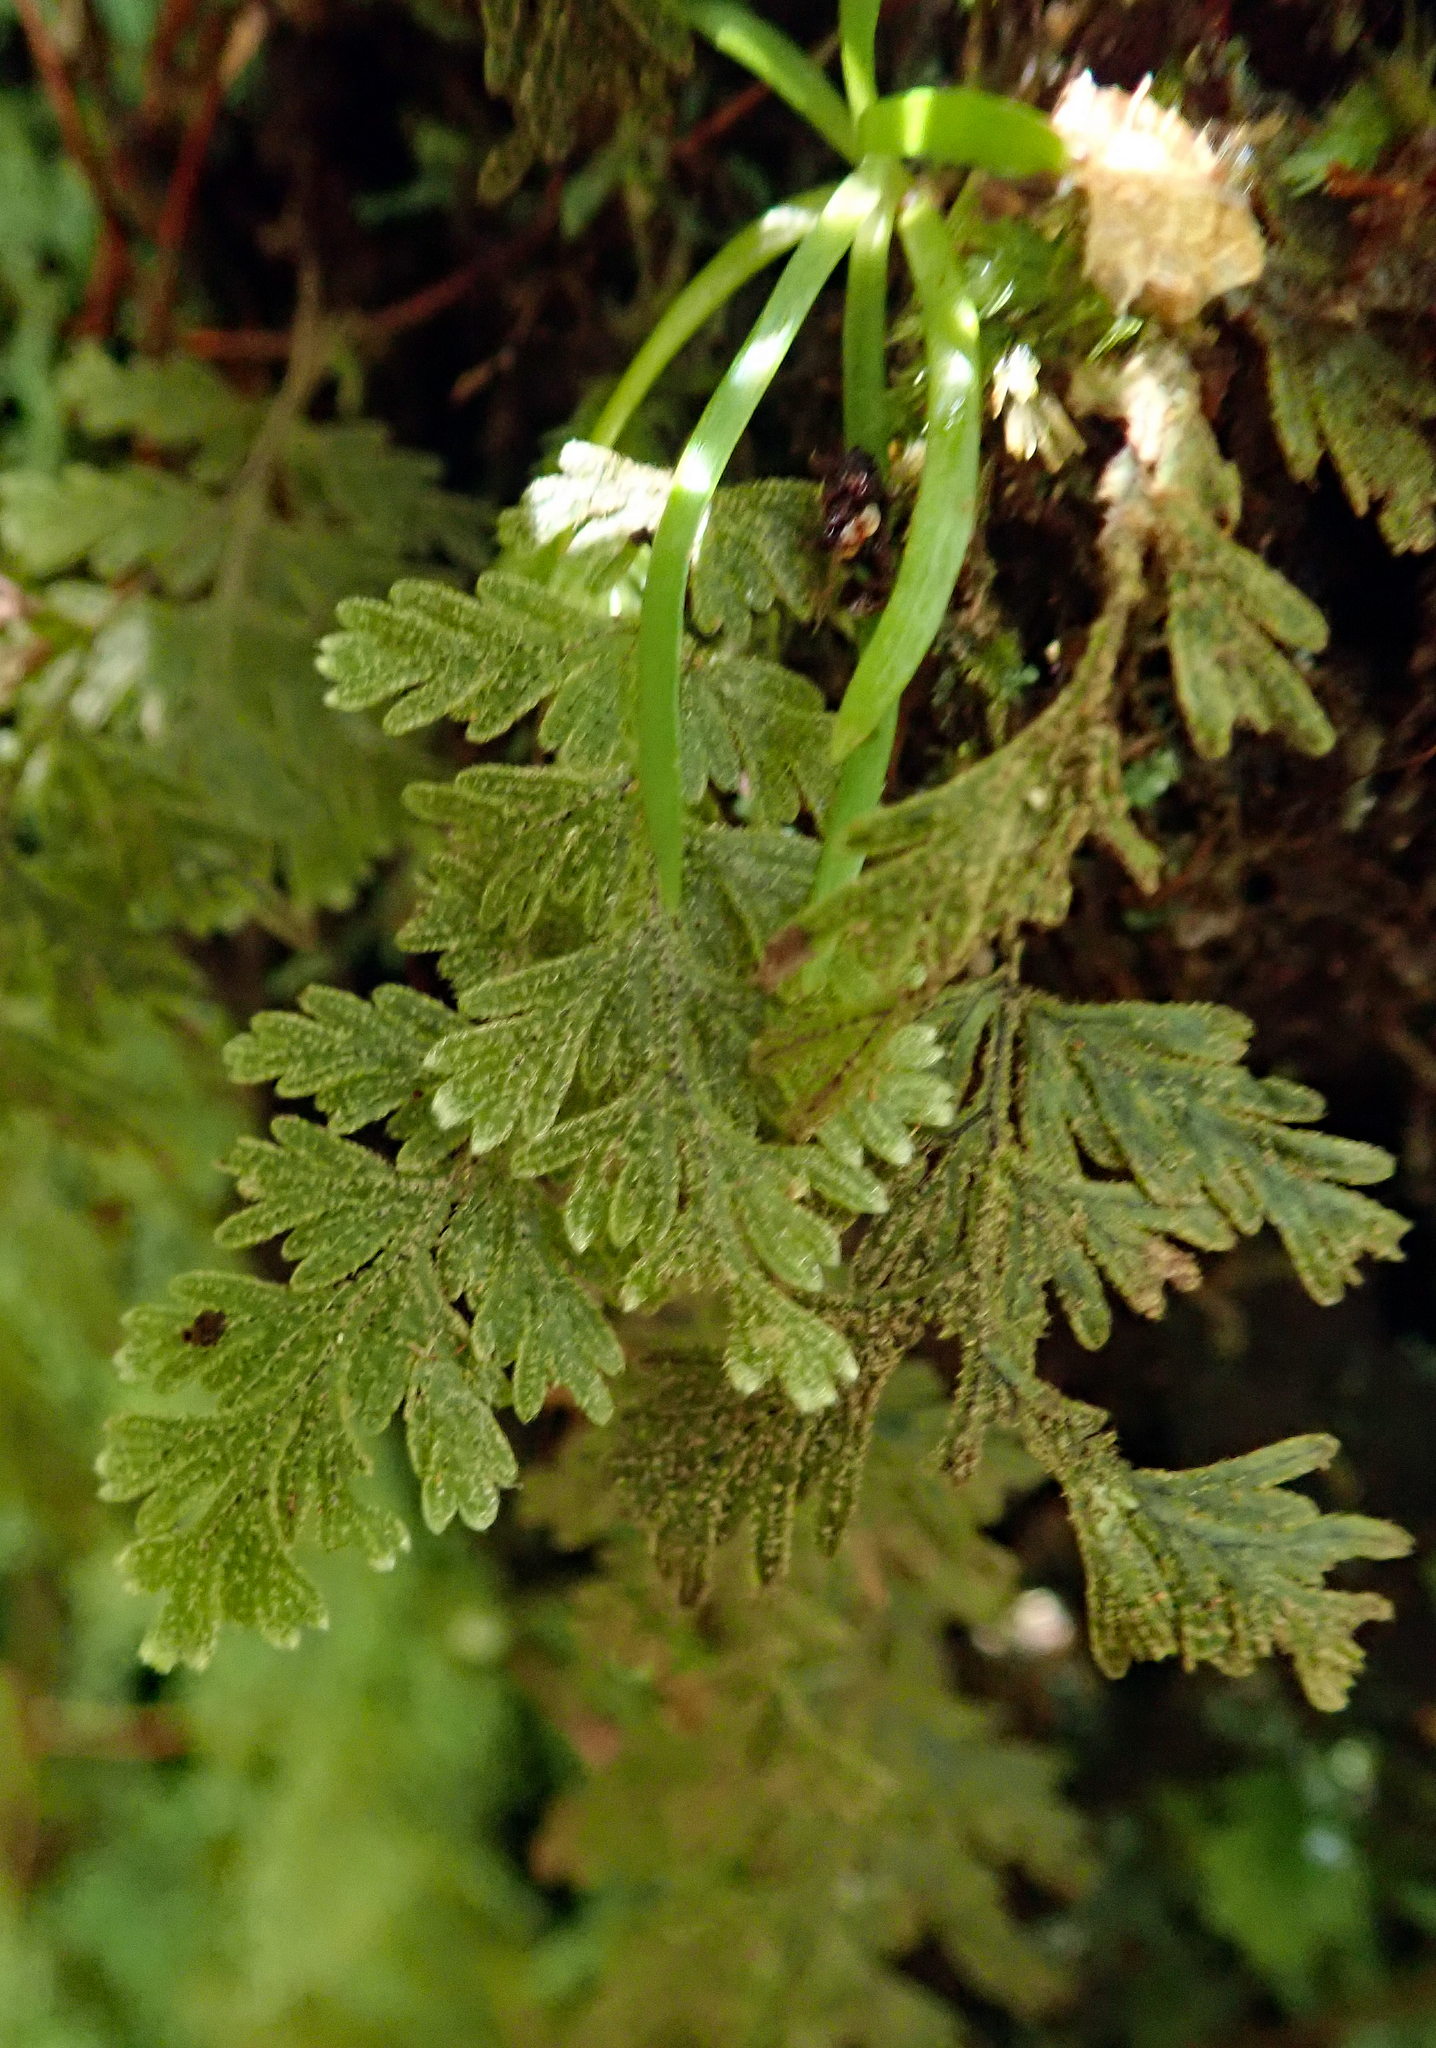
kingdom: Plantae
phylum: Tracheophyta
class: Polypodiopsida
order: Hymenophyllales
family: Hymenophyllaceae
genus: Hymenophyllum
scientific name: Hymenophyllum frankliniae
